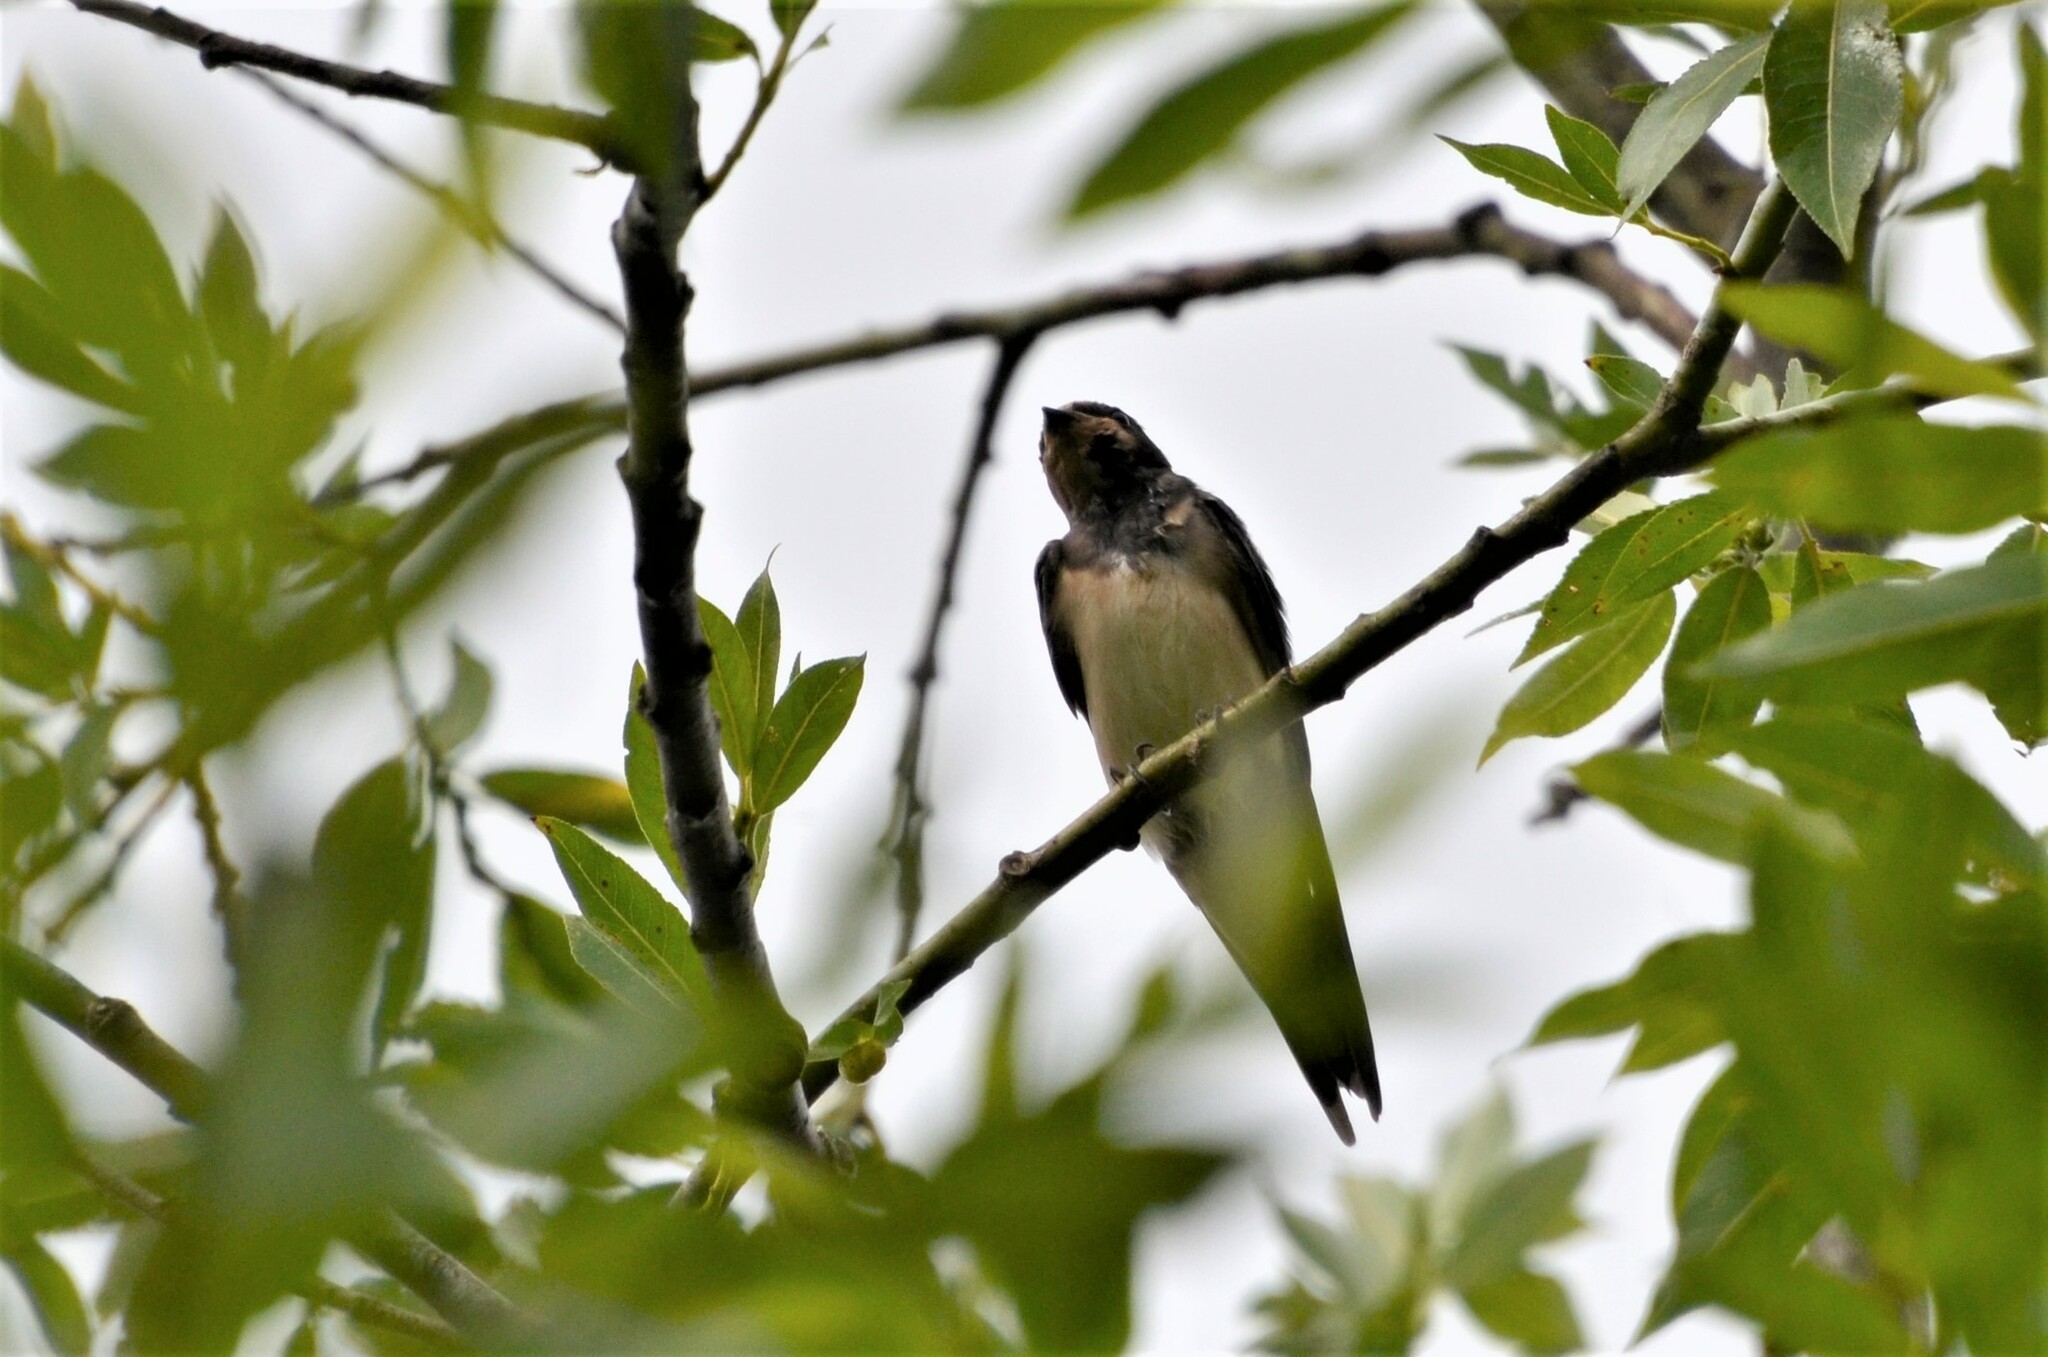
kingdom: Animalia
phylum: Chordata
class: Aves
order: Passeriformes
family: Hirundinidae
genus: Hirundo
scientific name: Hirundo rustica
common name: Barn swallow
